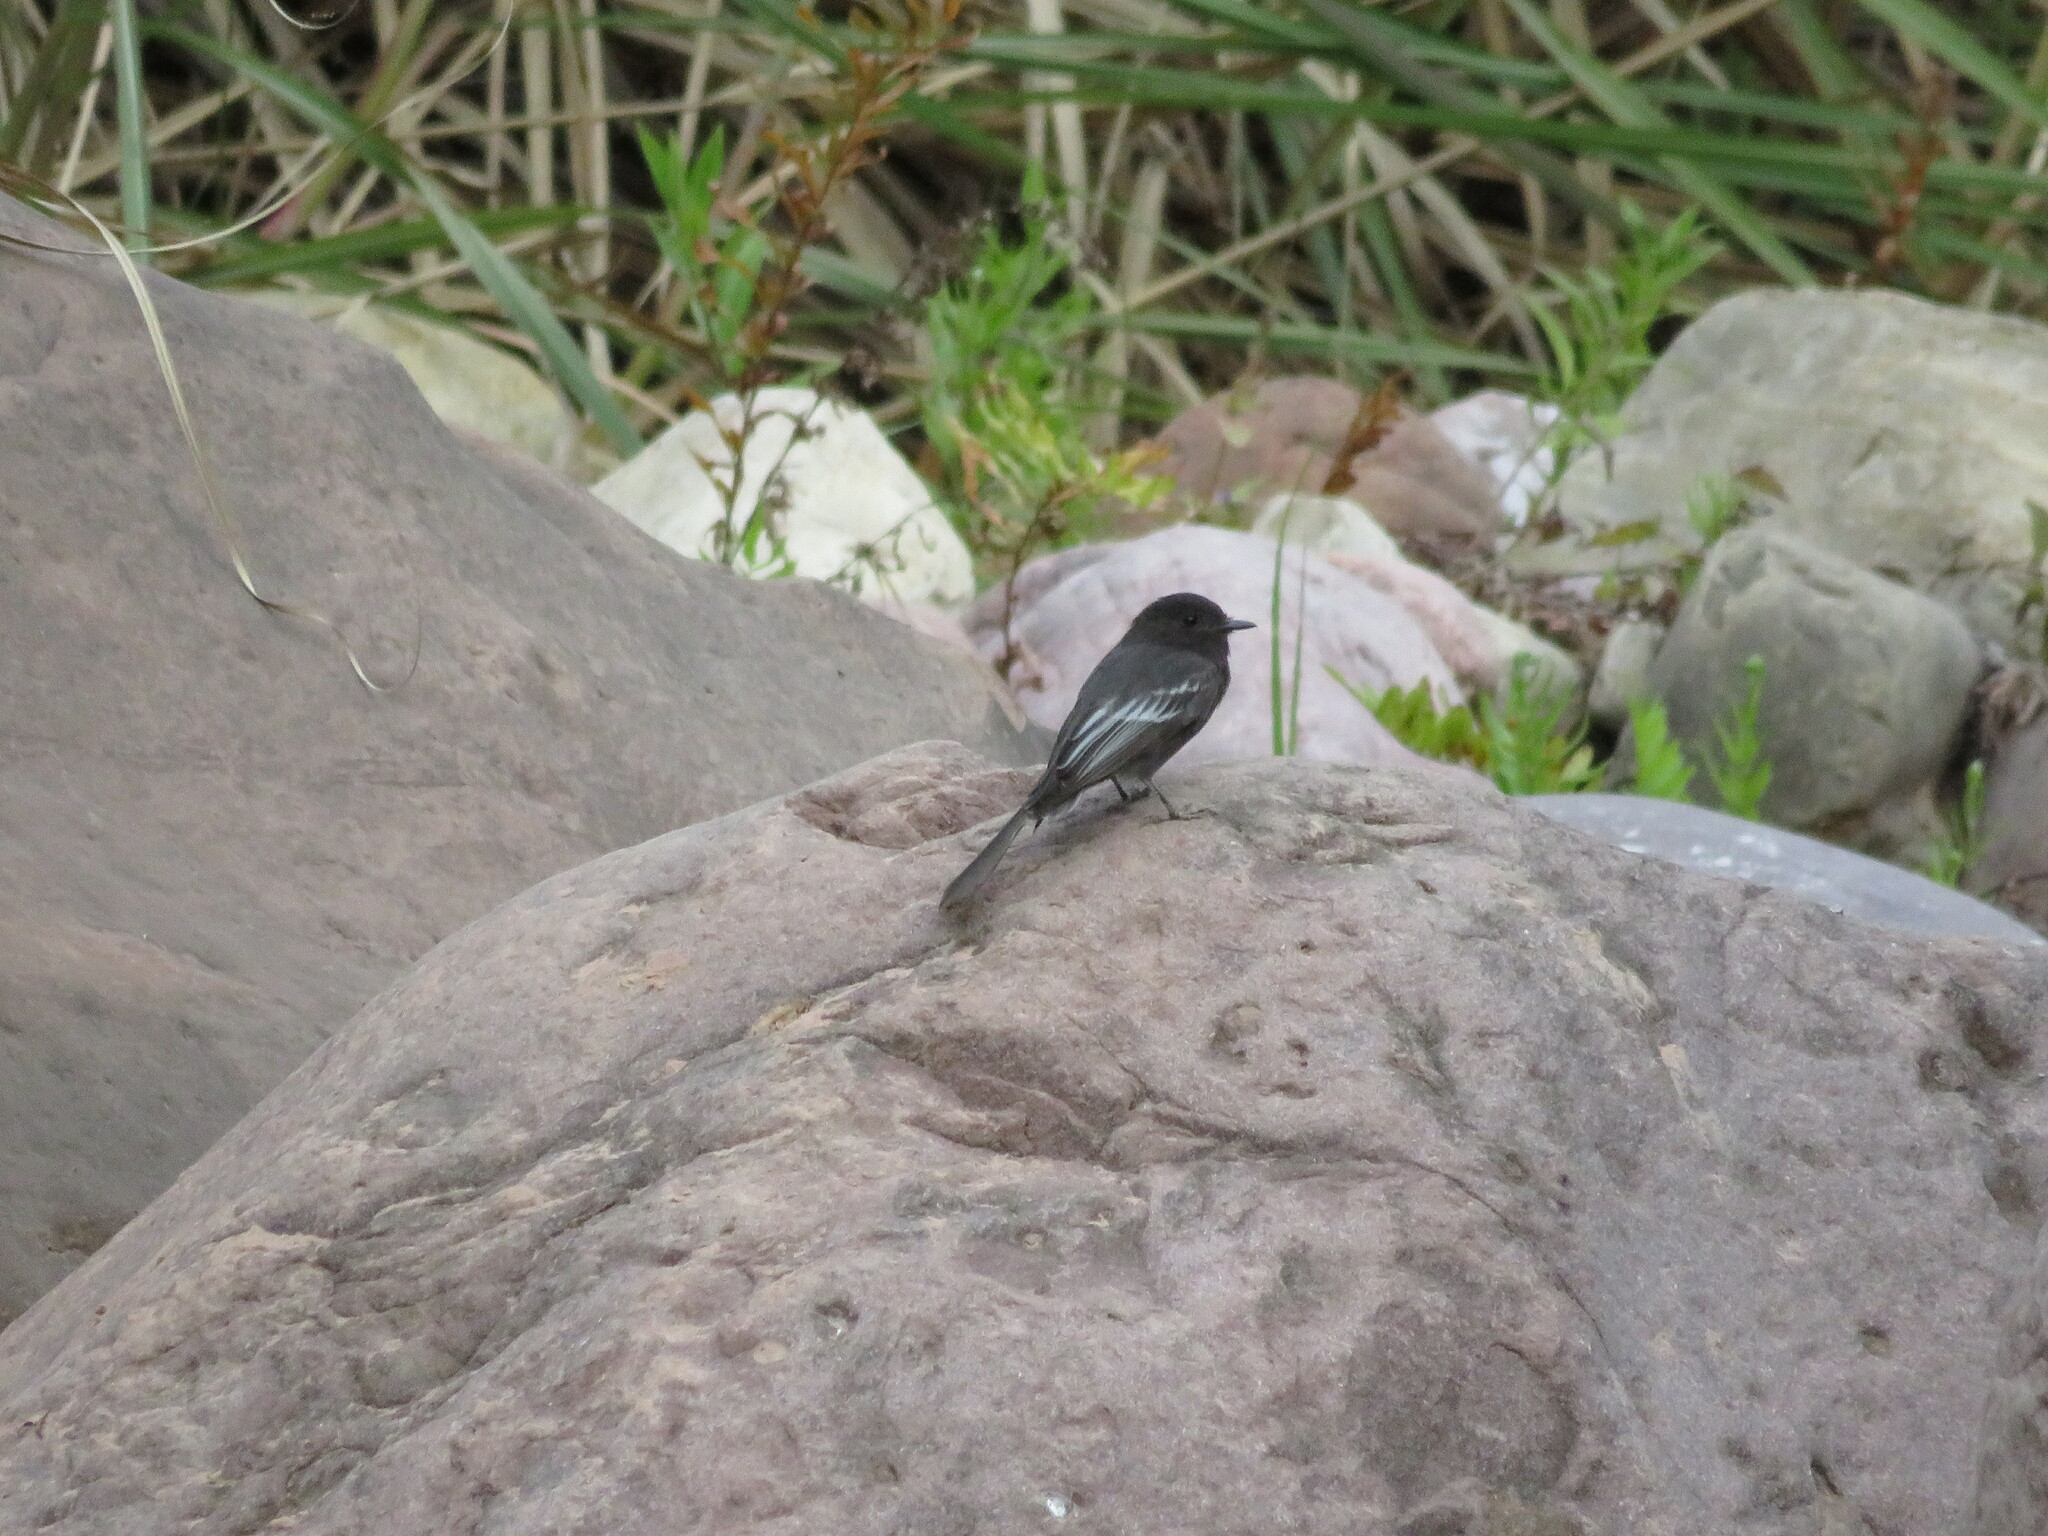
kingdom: Animalia
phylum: Chordata
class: Aves
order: Passeriformes
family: Tyrannidae
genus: Sayornis
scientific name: Sayornis nigricans
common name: Black phoebe
